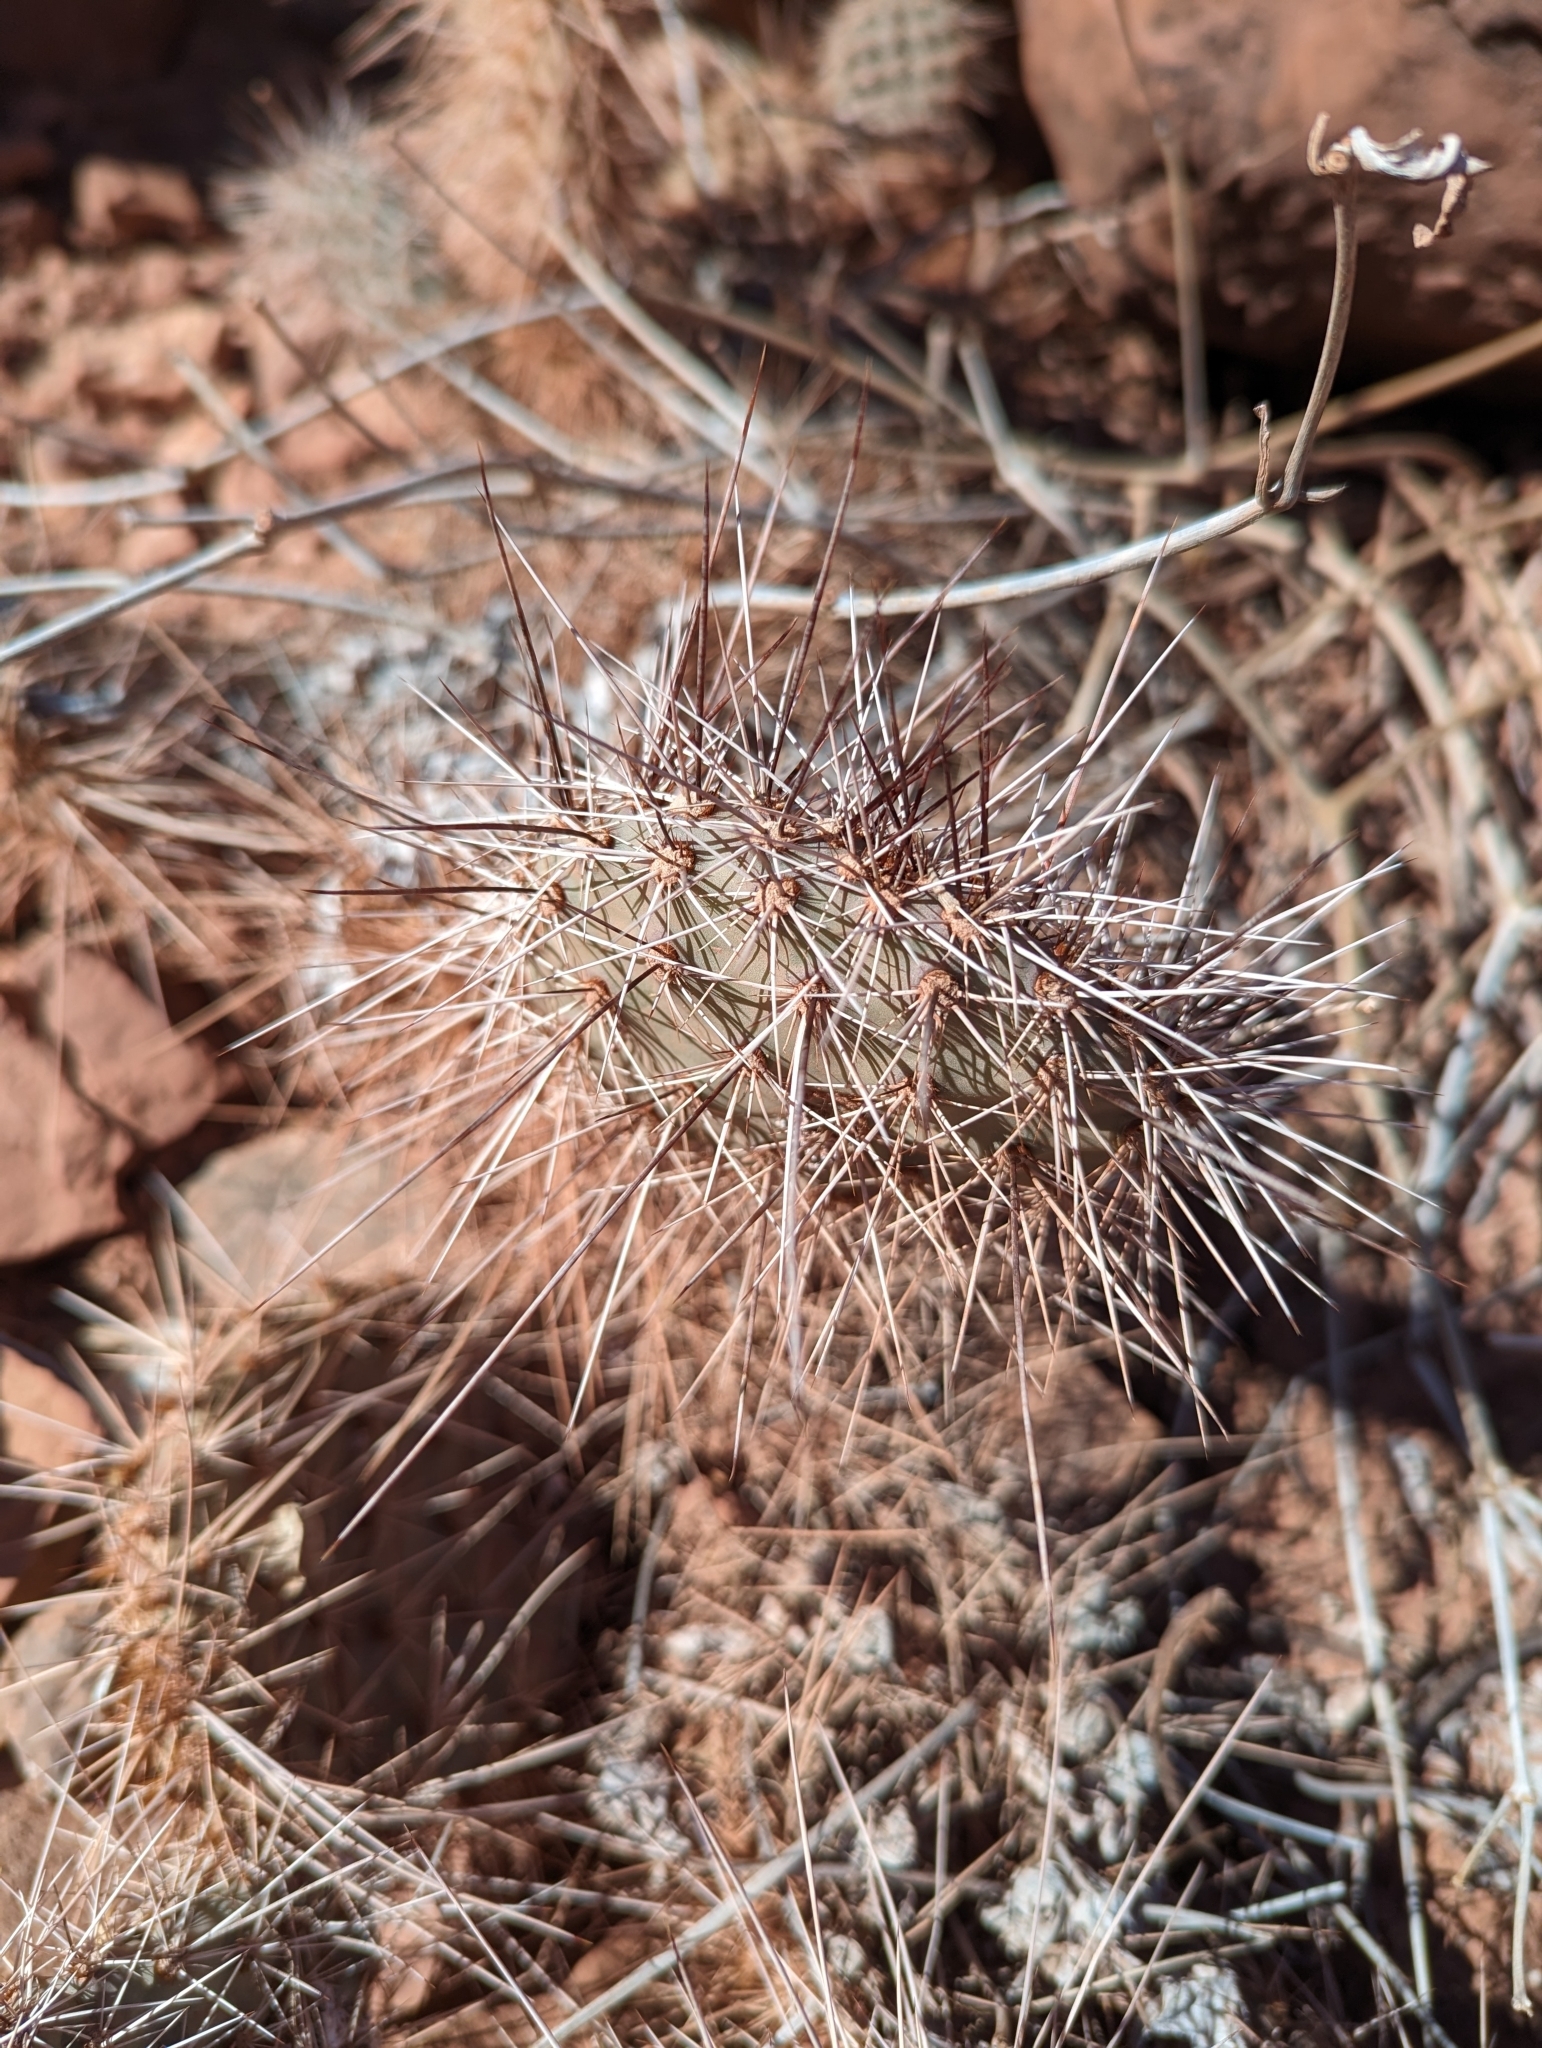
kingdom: Plantae
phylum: Tracheophyta
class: Magnoliopsida
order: Caryophyllales
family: Cactaceae
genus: Opuntia
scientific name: Opuntia polyacantha
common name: Plains prickly-pear
